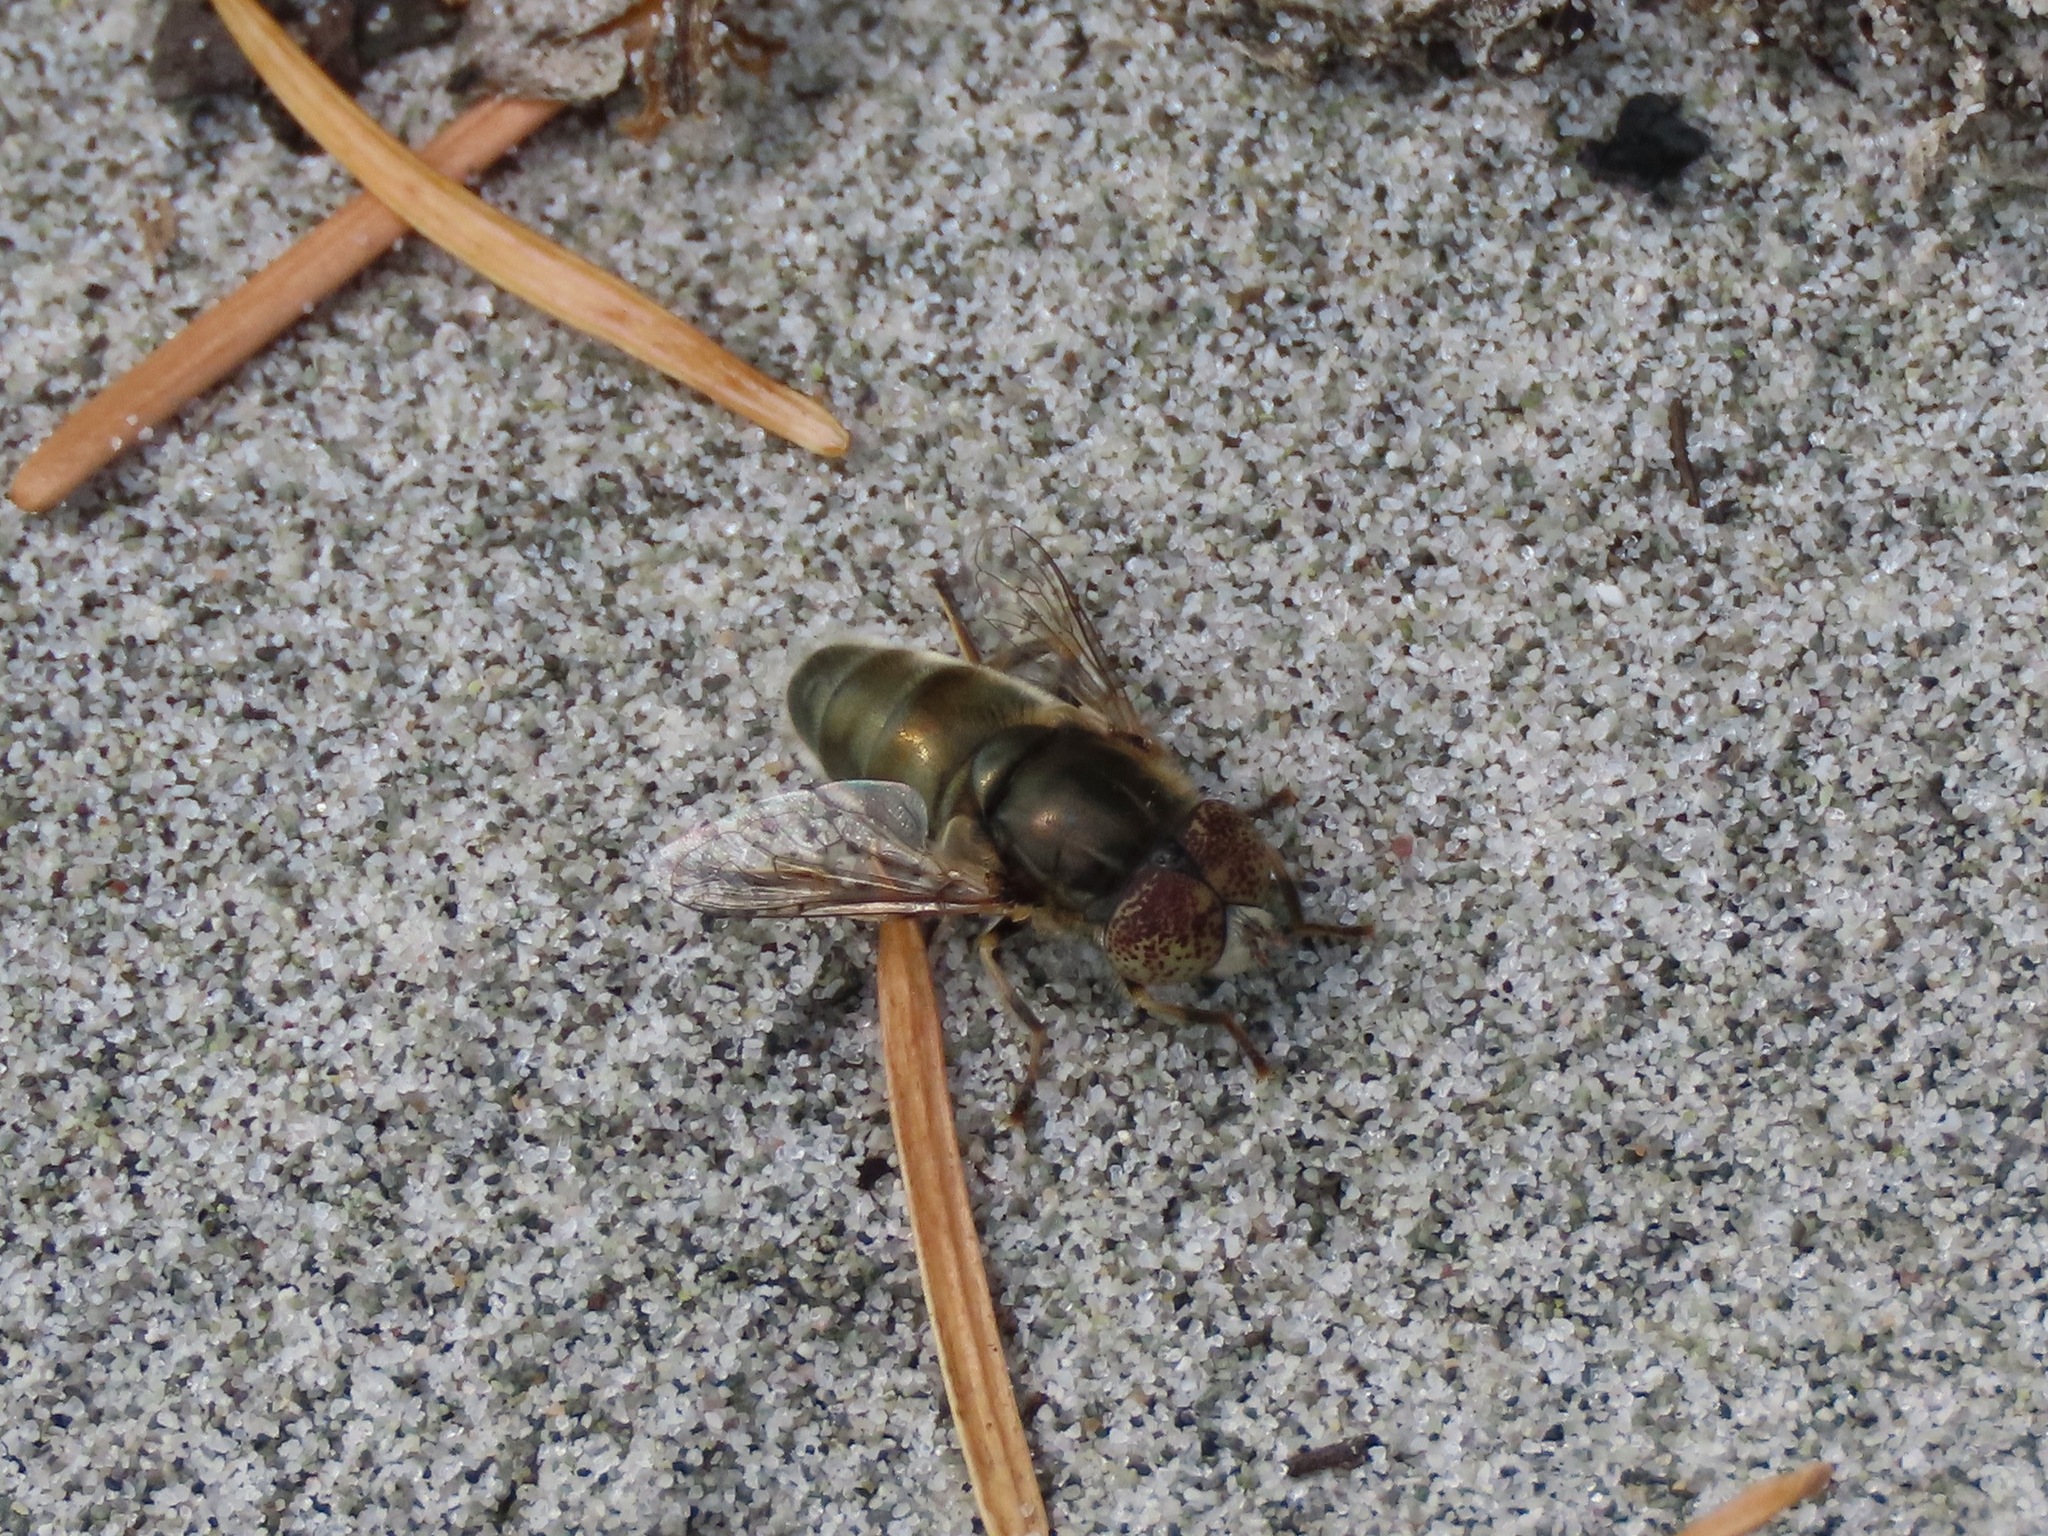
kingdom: Animalia
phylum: Arthropoda
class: Insecta
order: Diptera
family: Syrphidae
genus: Eristalinus
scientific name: Eristalinus aeneus
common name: Syrphid fly
